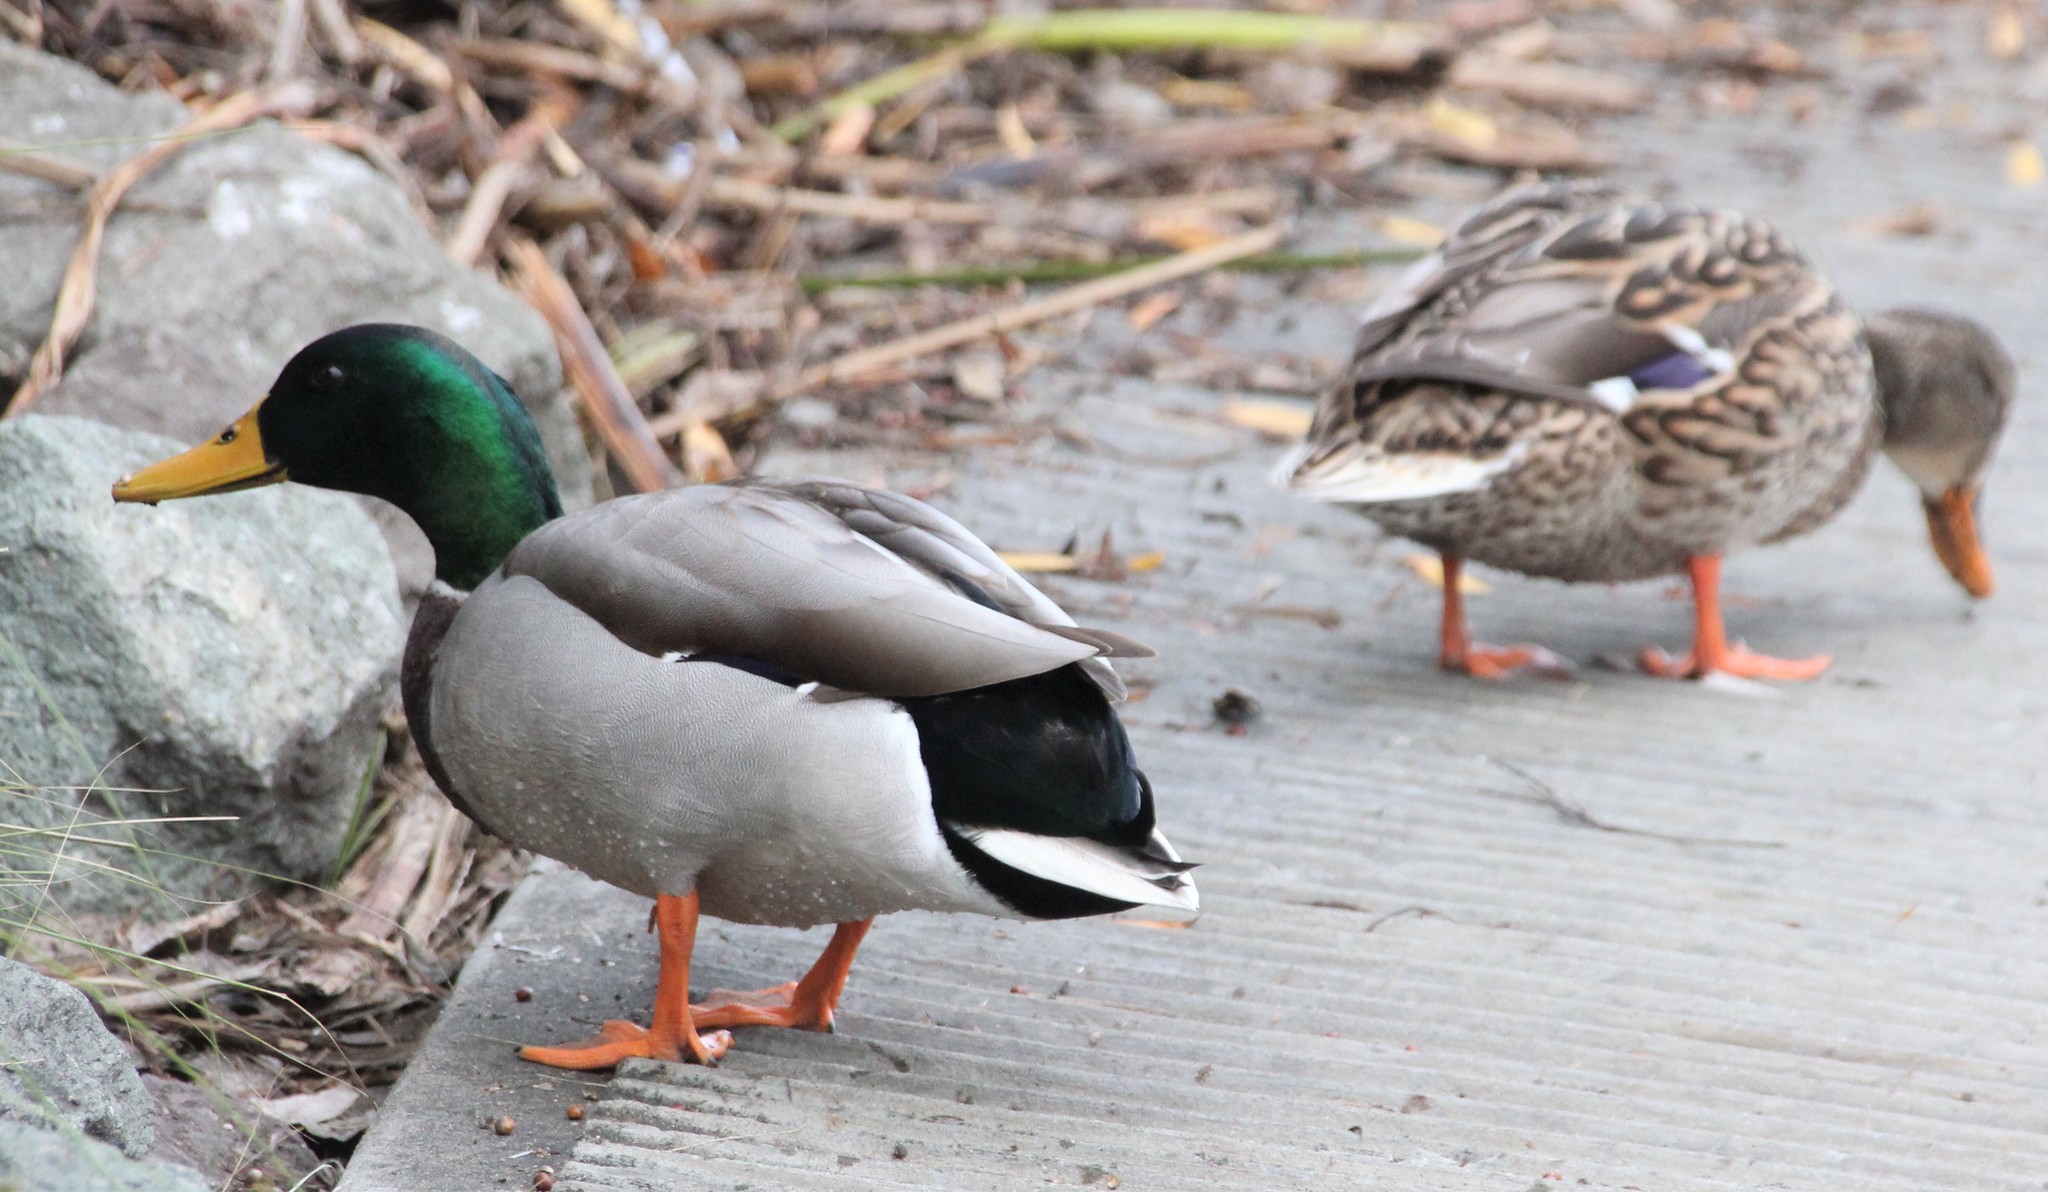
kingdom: Animalia
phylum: Chordata
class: Aves
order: Anseriformes
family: Anatidae
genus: Anas
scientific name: Anas platyrhynchos
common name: Mallard
